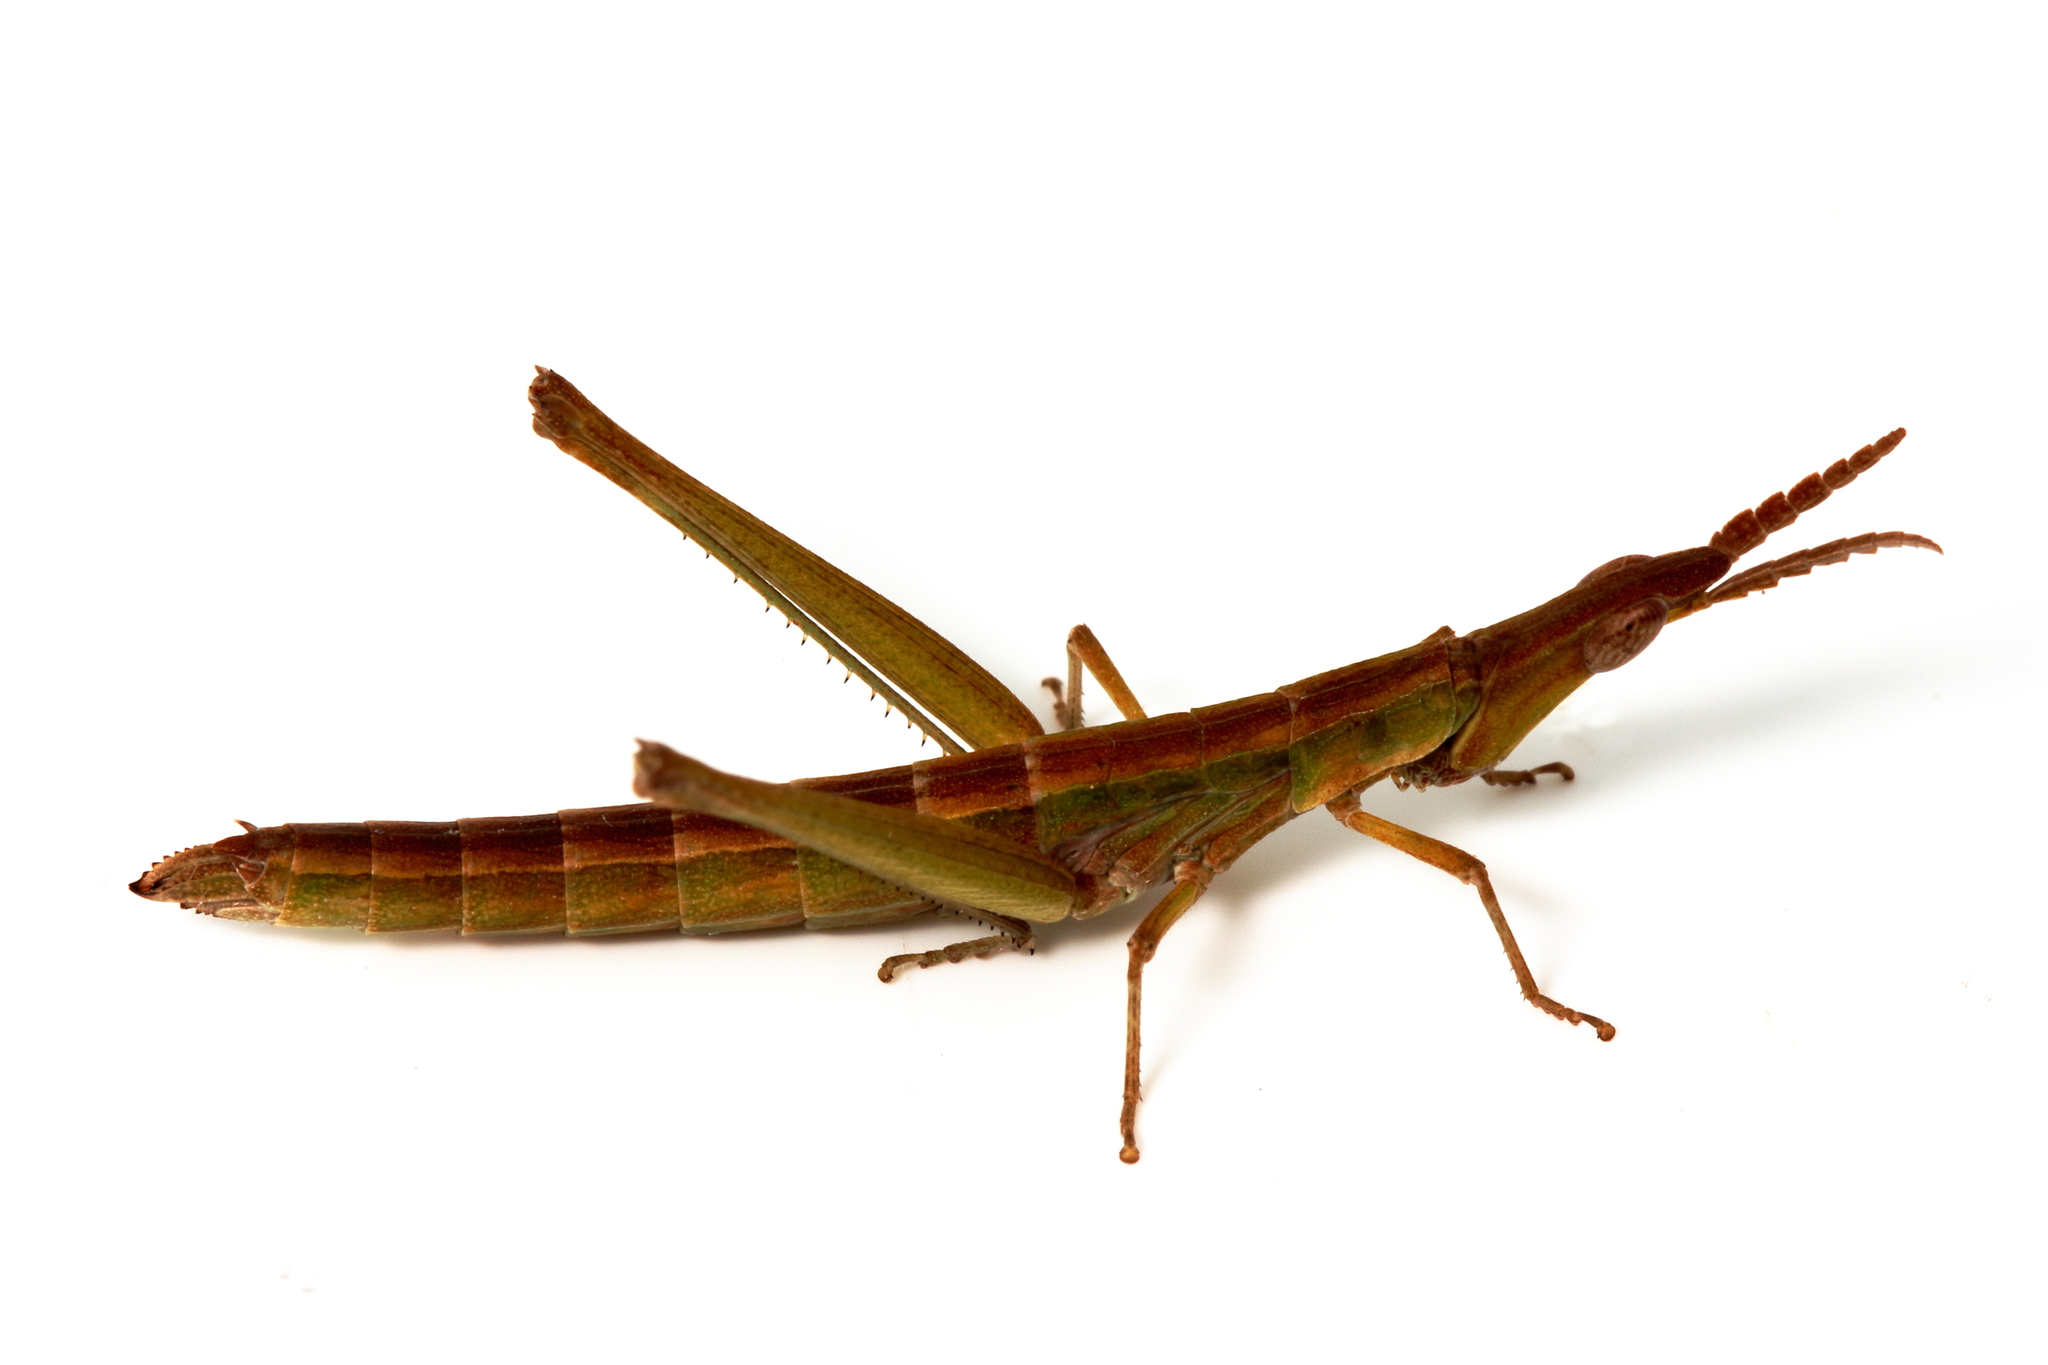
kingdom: Animalia
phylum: Arthropoda
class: Insecta
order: Orthoptera
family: Morabidae
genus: Vandiemenella
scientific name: Vandiemenella viatica
